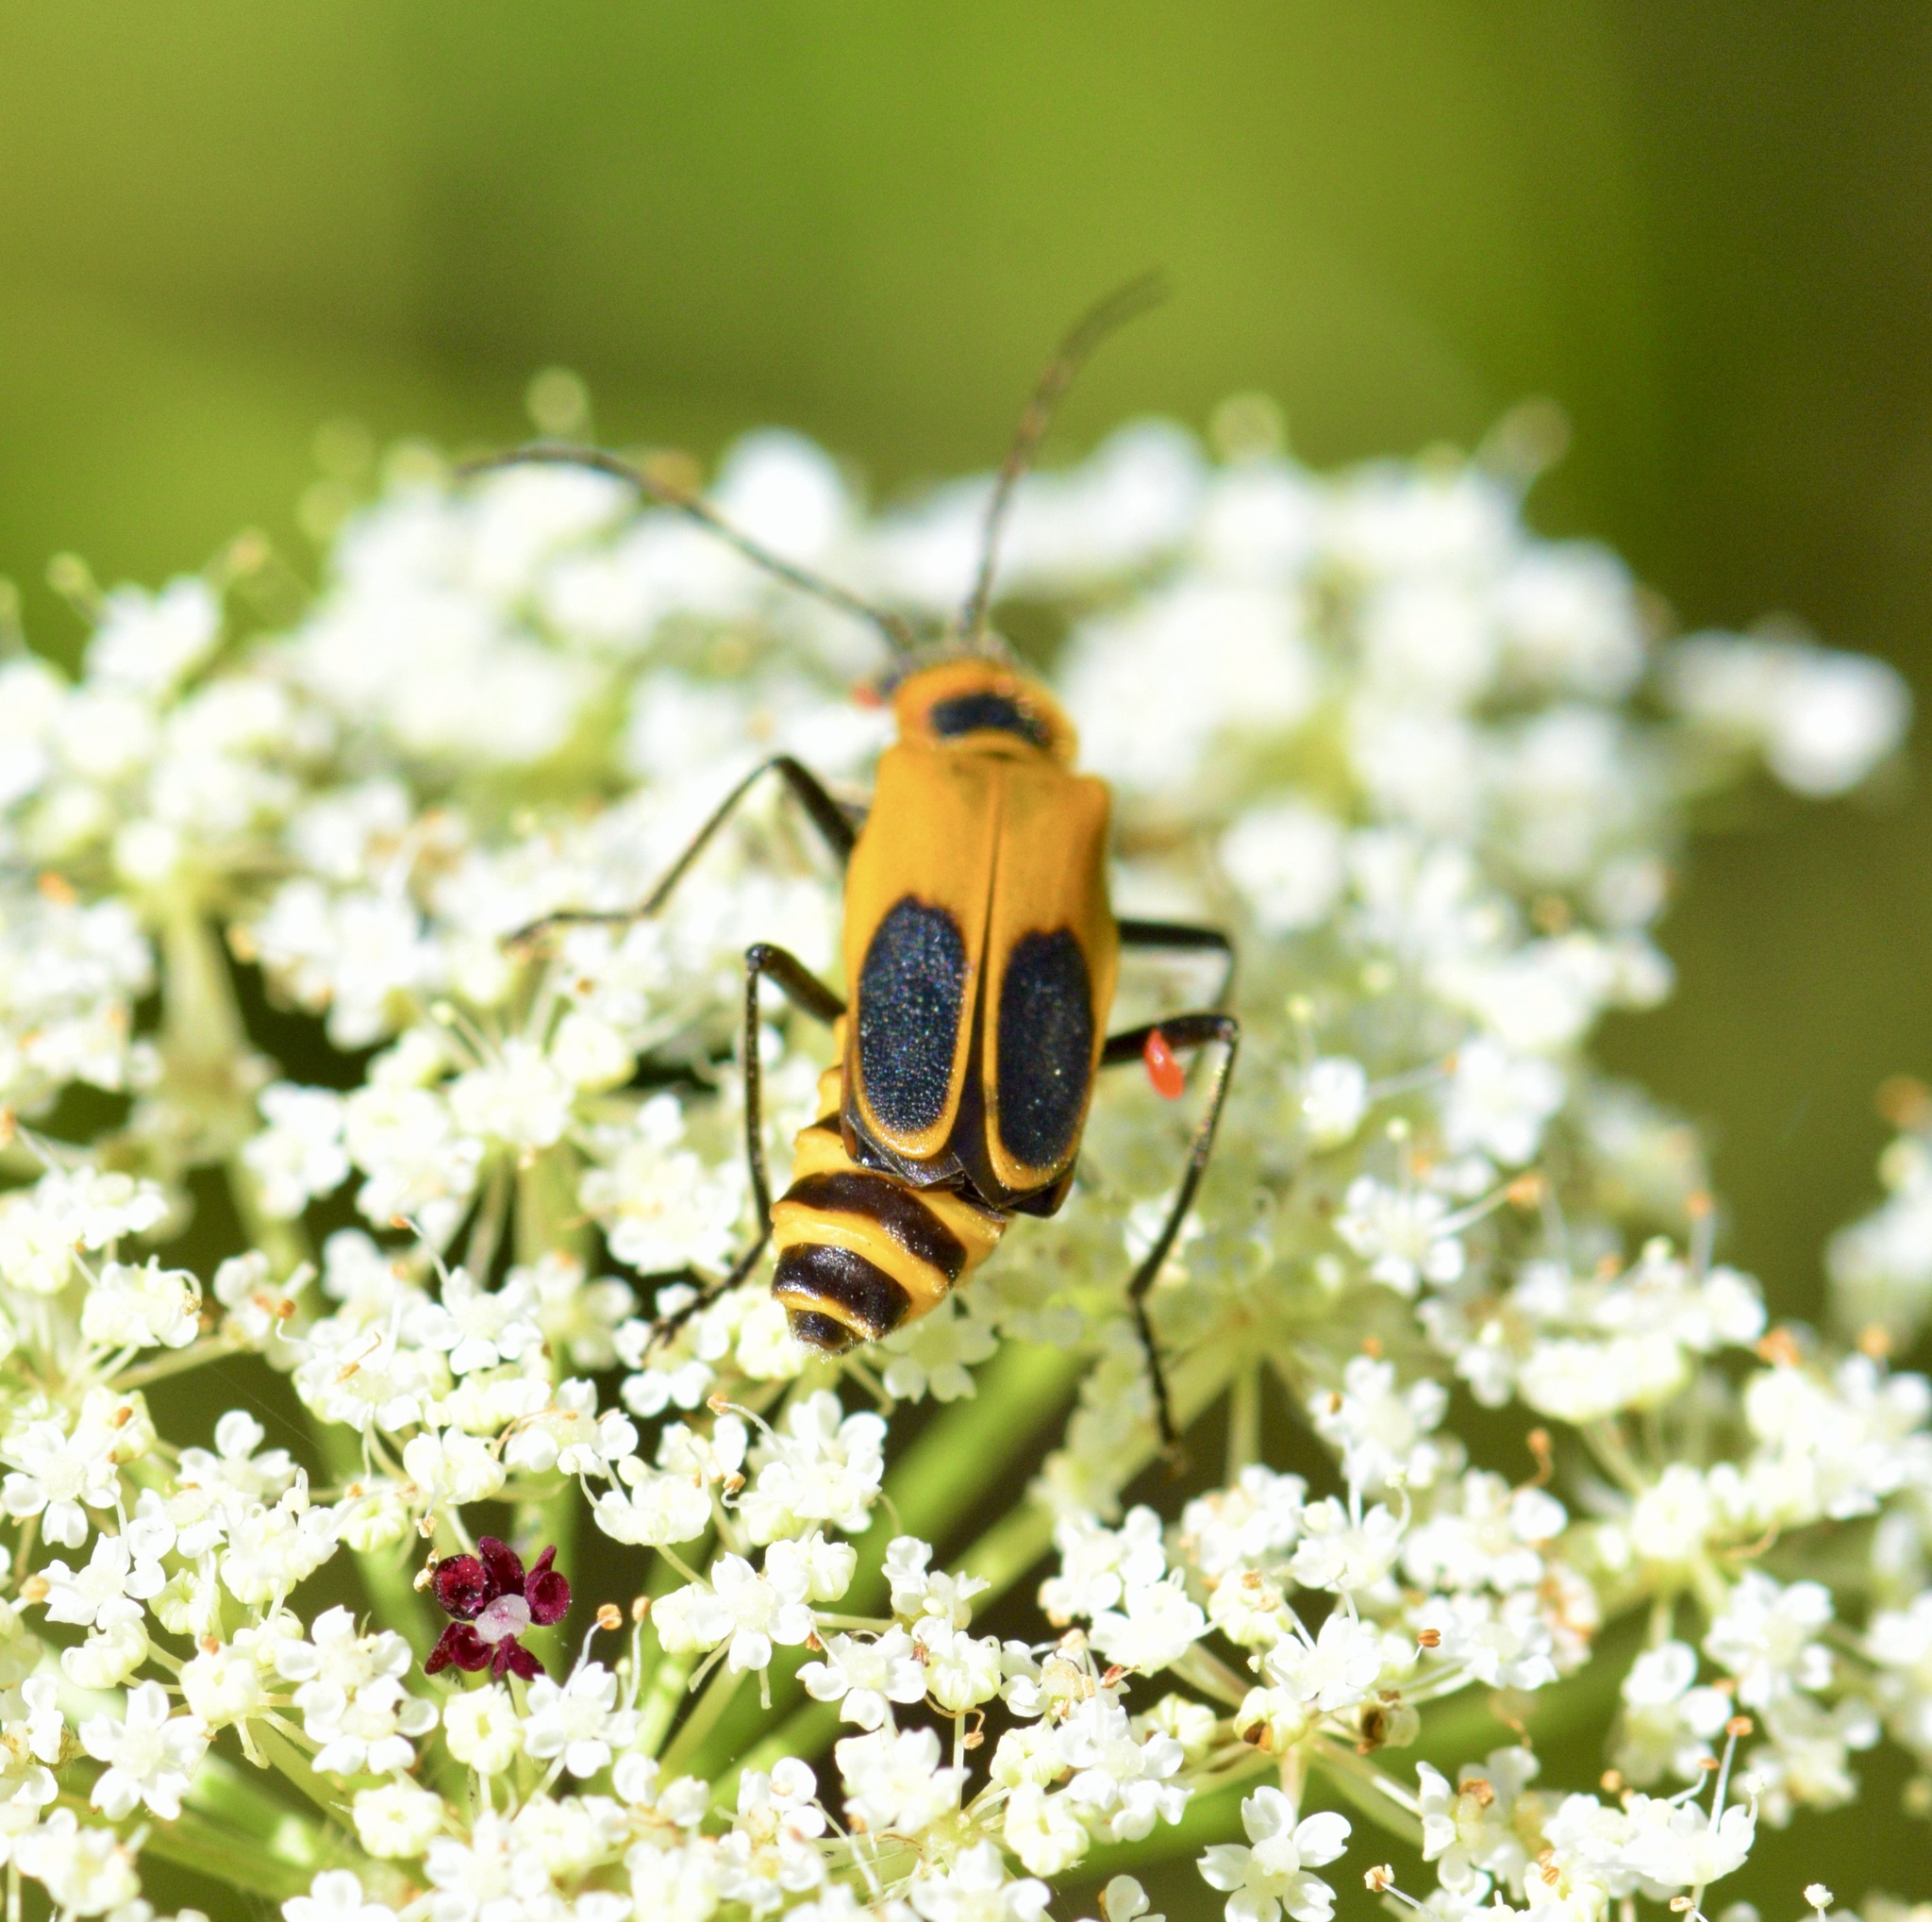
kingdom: Animalia
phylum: Arthropoda
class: Insecta
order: Coleoptera
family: Cantharidae
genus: Chauliognathus
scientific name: Chauliognathus pensylvanicus
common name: Goldenrod soldier beetle
